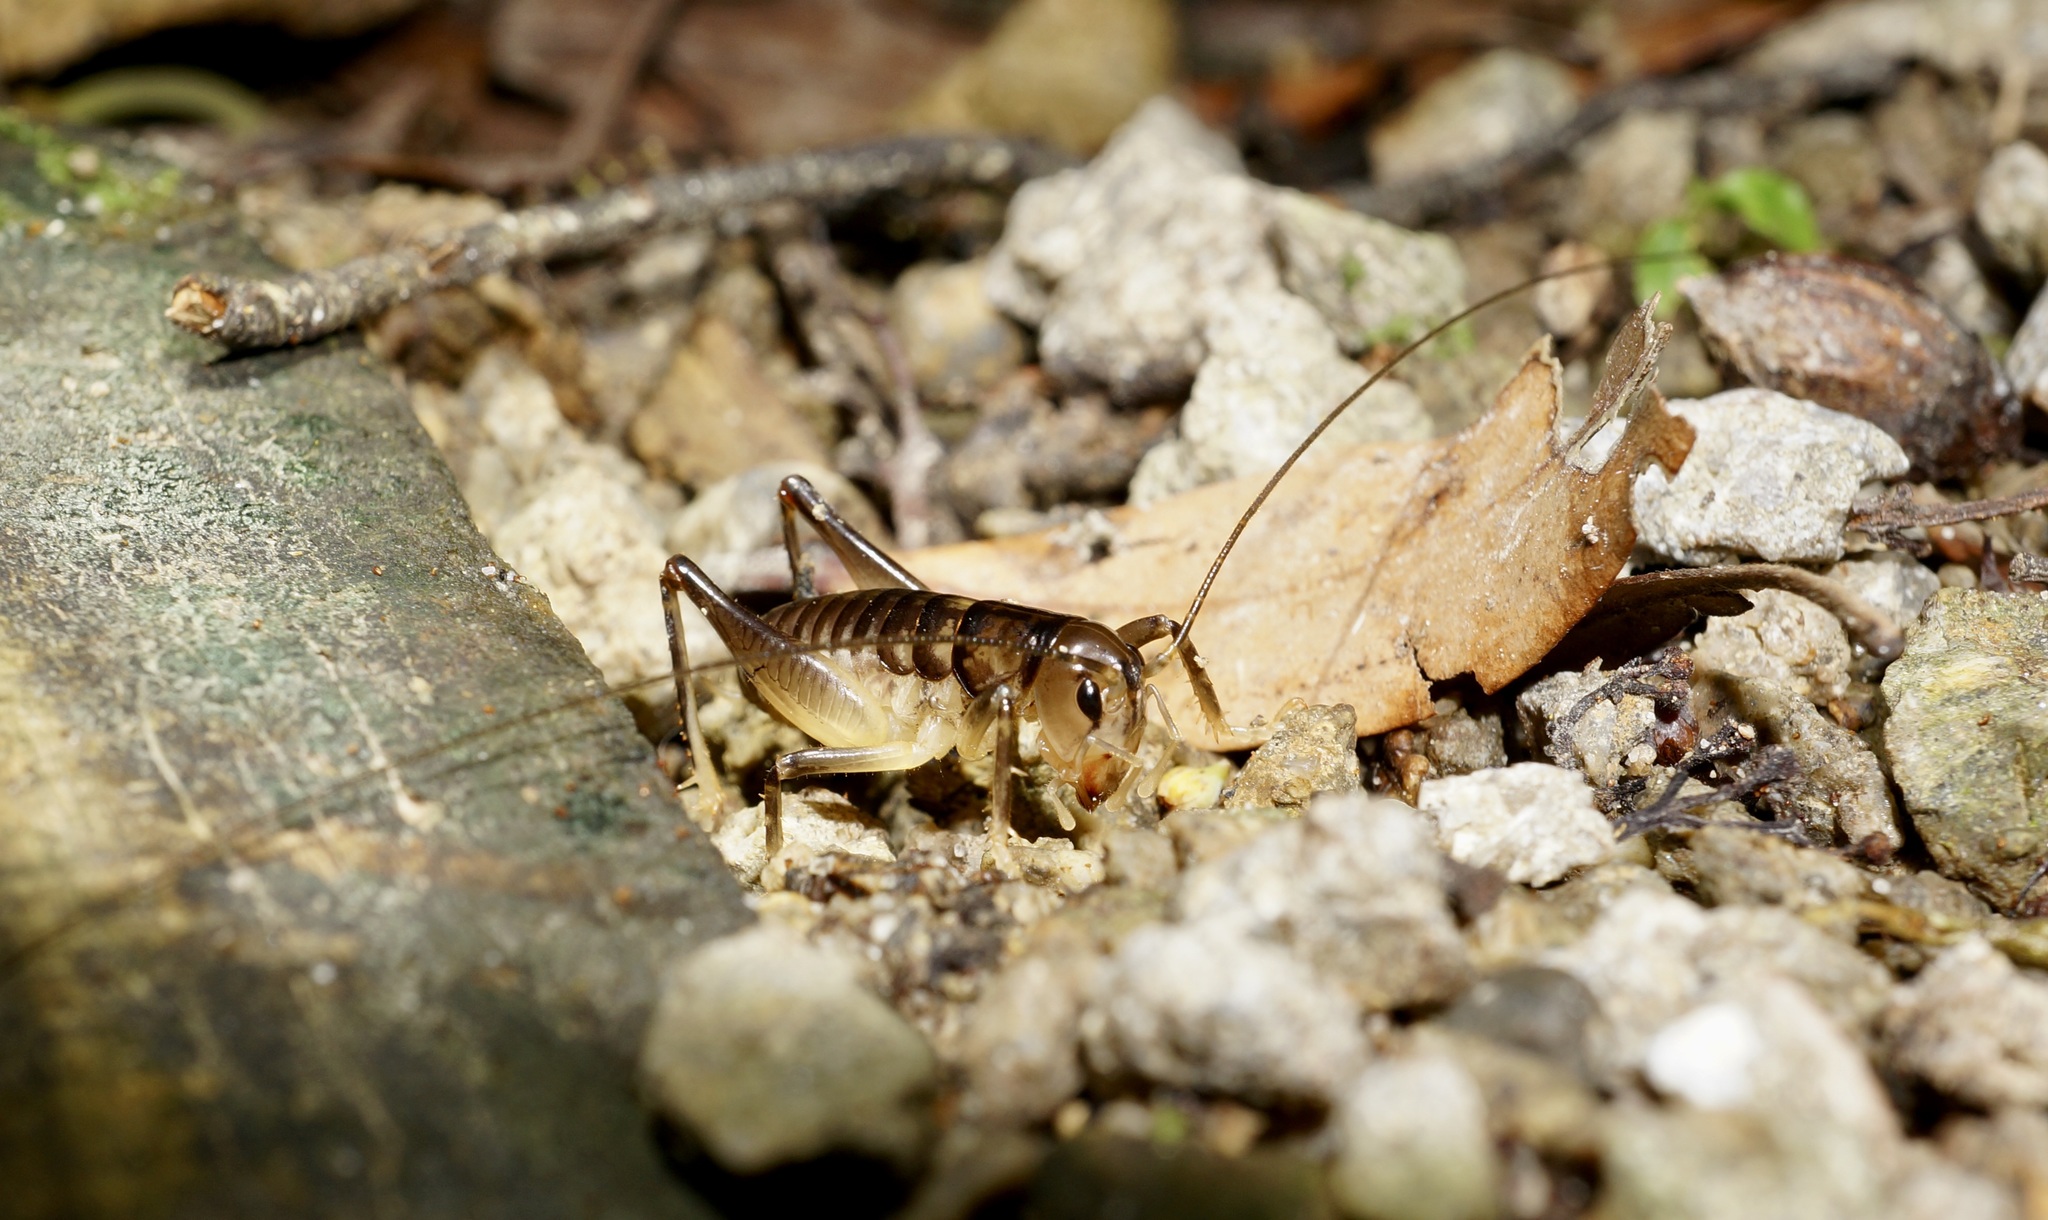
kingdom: Animalia
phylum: Arthropoda
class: Insecta
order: Orthoptera
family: Anostostomatidae
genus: Hemiandrus
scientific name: Hemiandrus pallitarsis
